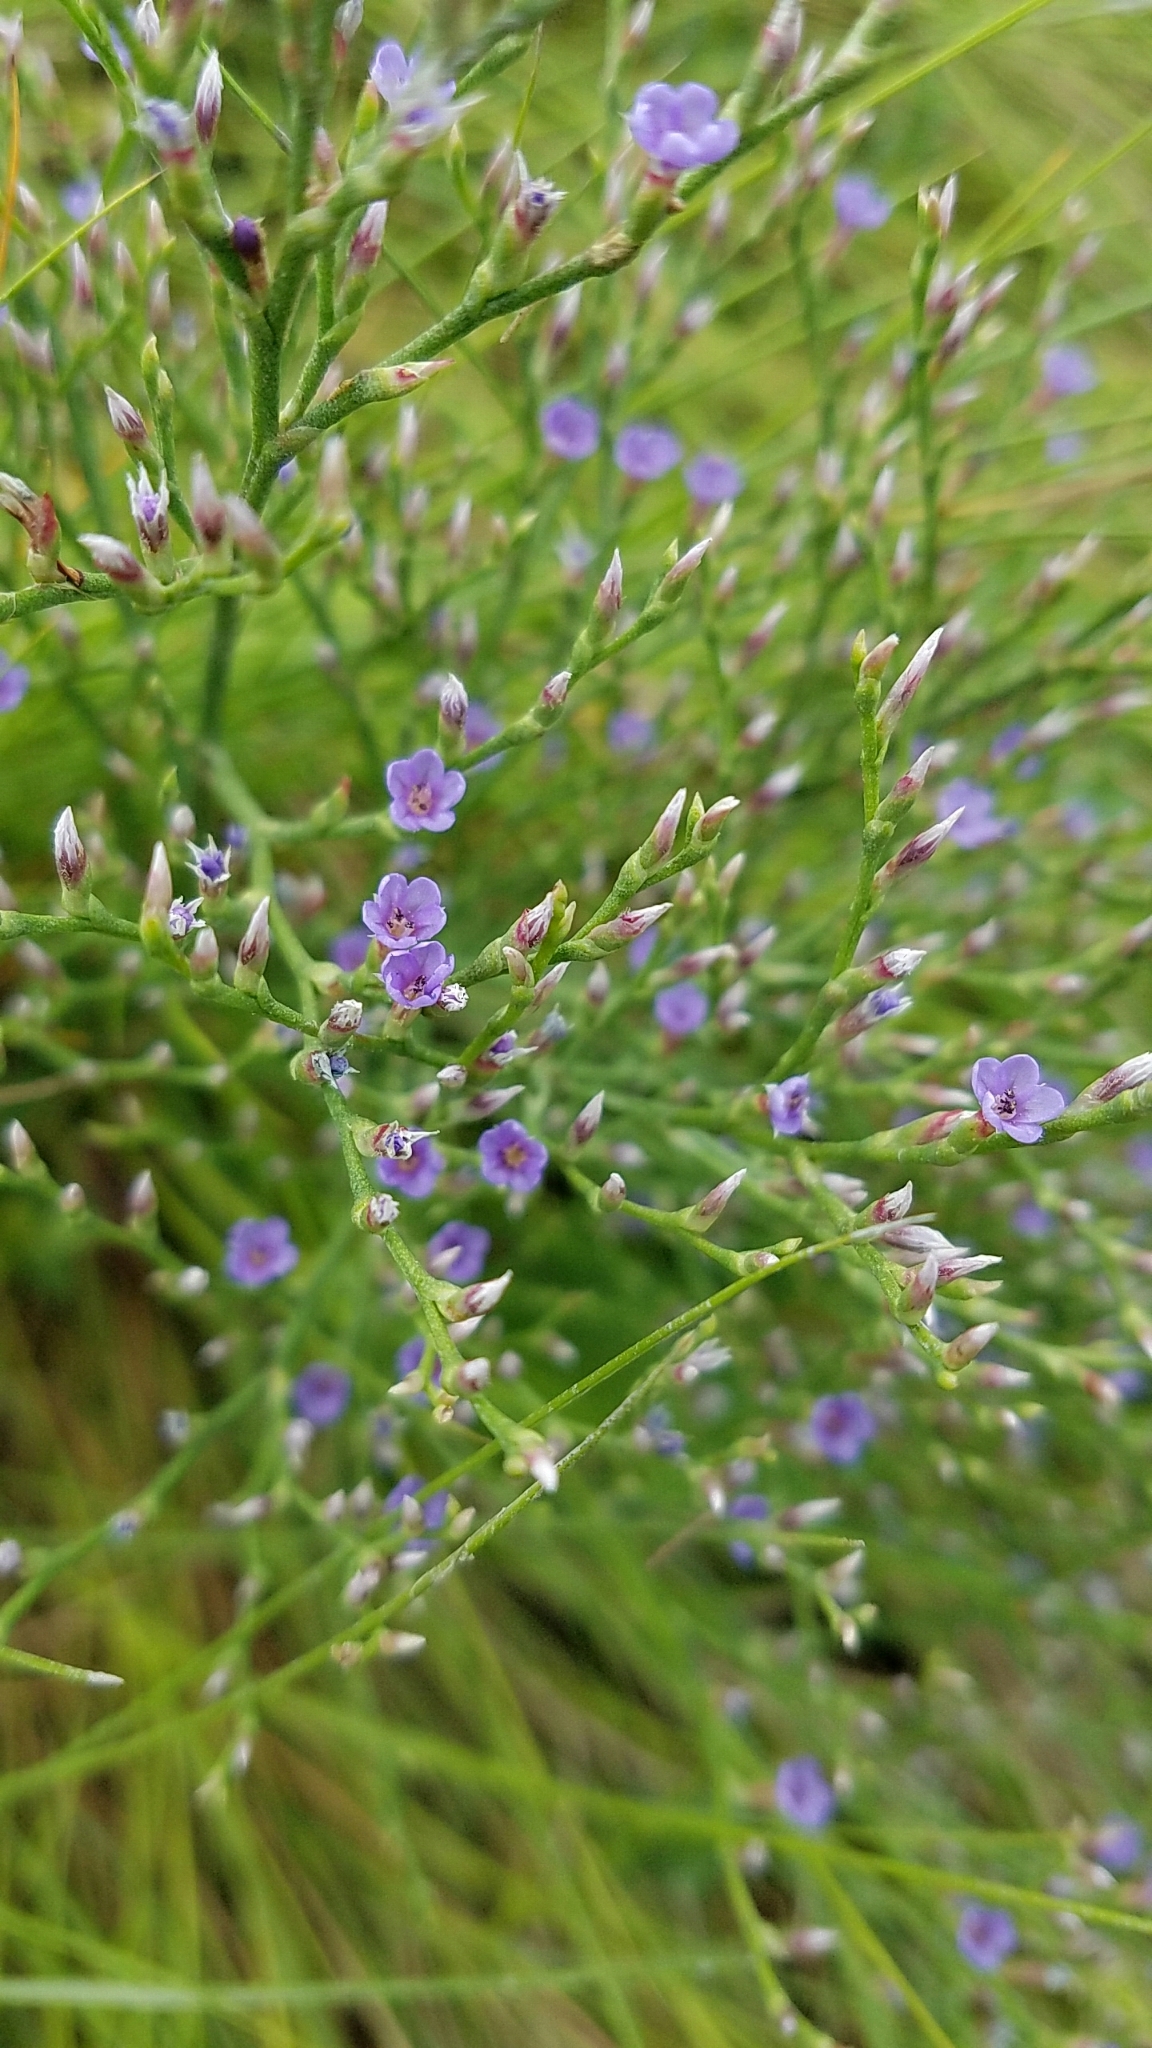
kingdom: Plantae
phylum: Tracheophyta
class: Magnoliopsida
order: Caryophyllales
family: Plumbaginaceae
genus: Limonium
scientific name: Limonium carolinianum
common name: Carolina sea lavender
